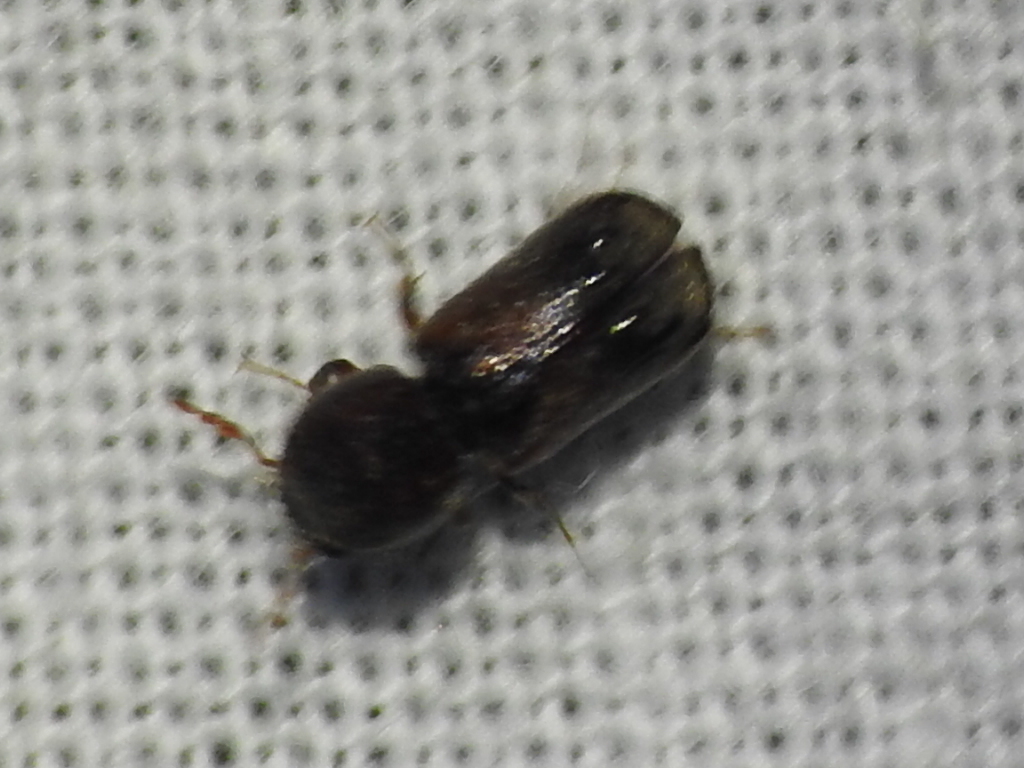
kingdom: Animalia
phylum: Arthropoda
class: Insecta
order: Coleoptera
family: Bostrichidae
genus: Xylobiops
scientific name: Xylobiops basilaris
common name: Red-shouldered bostrichid
